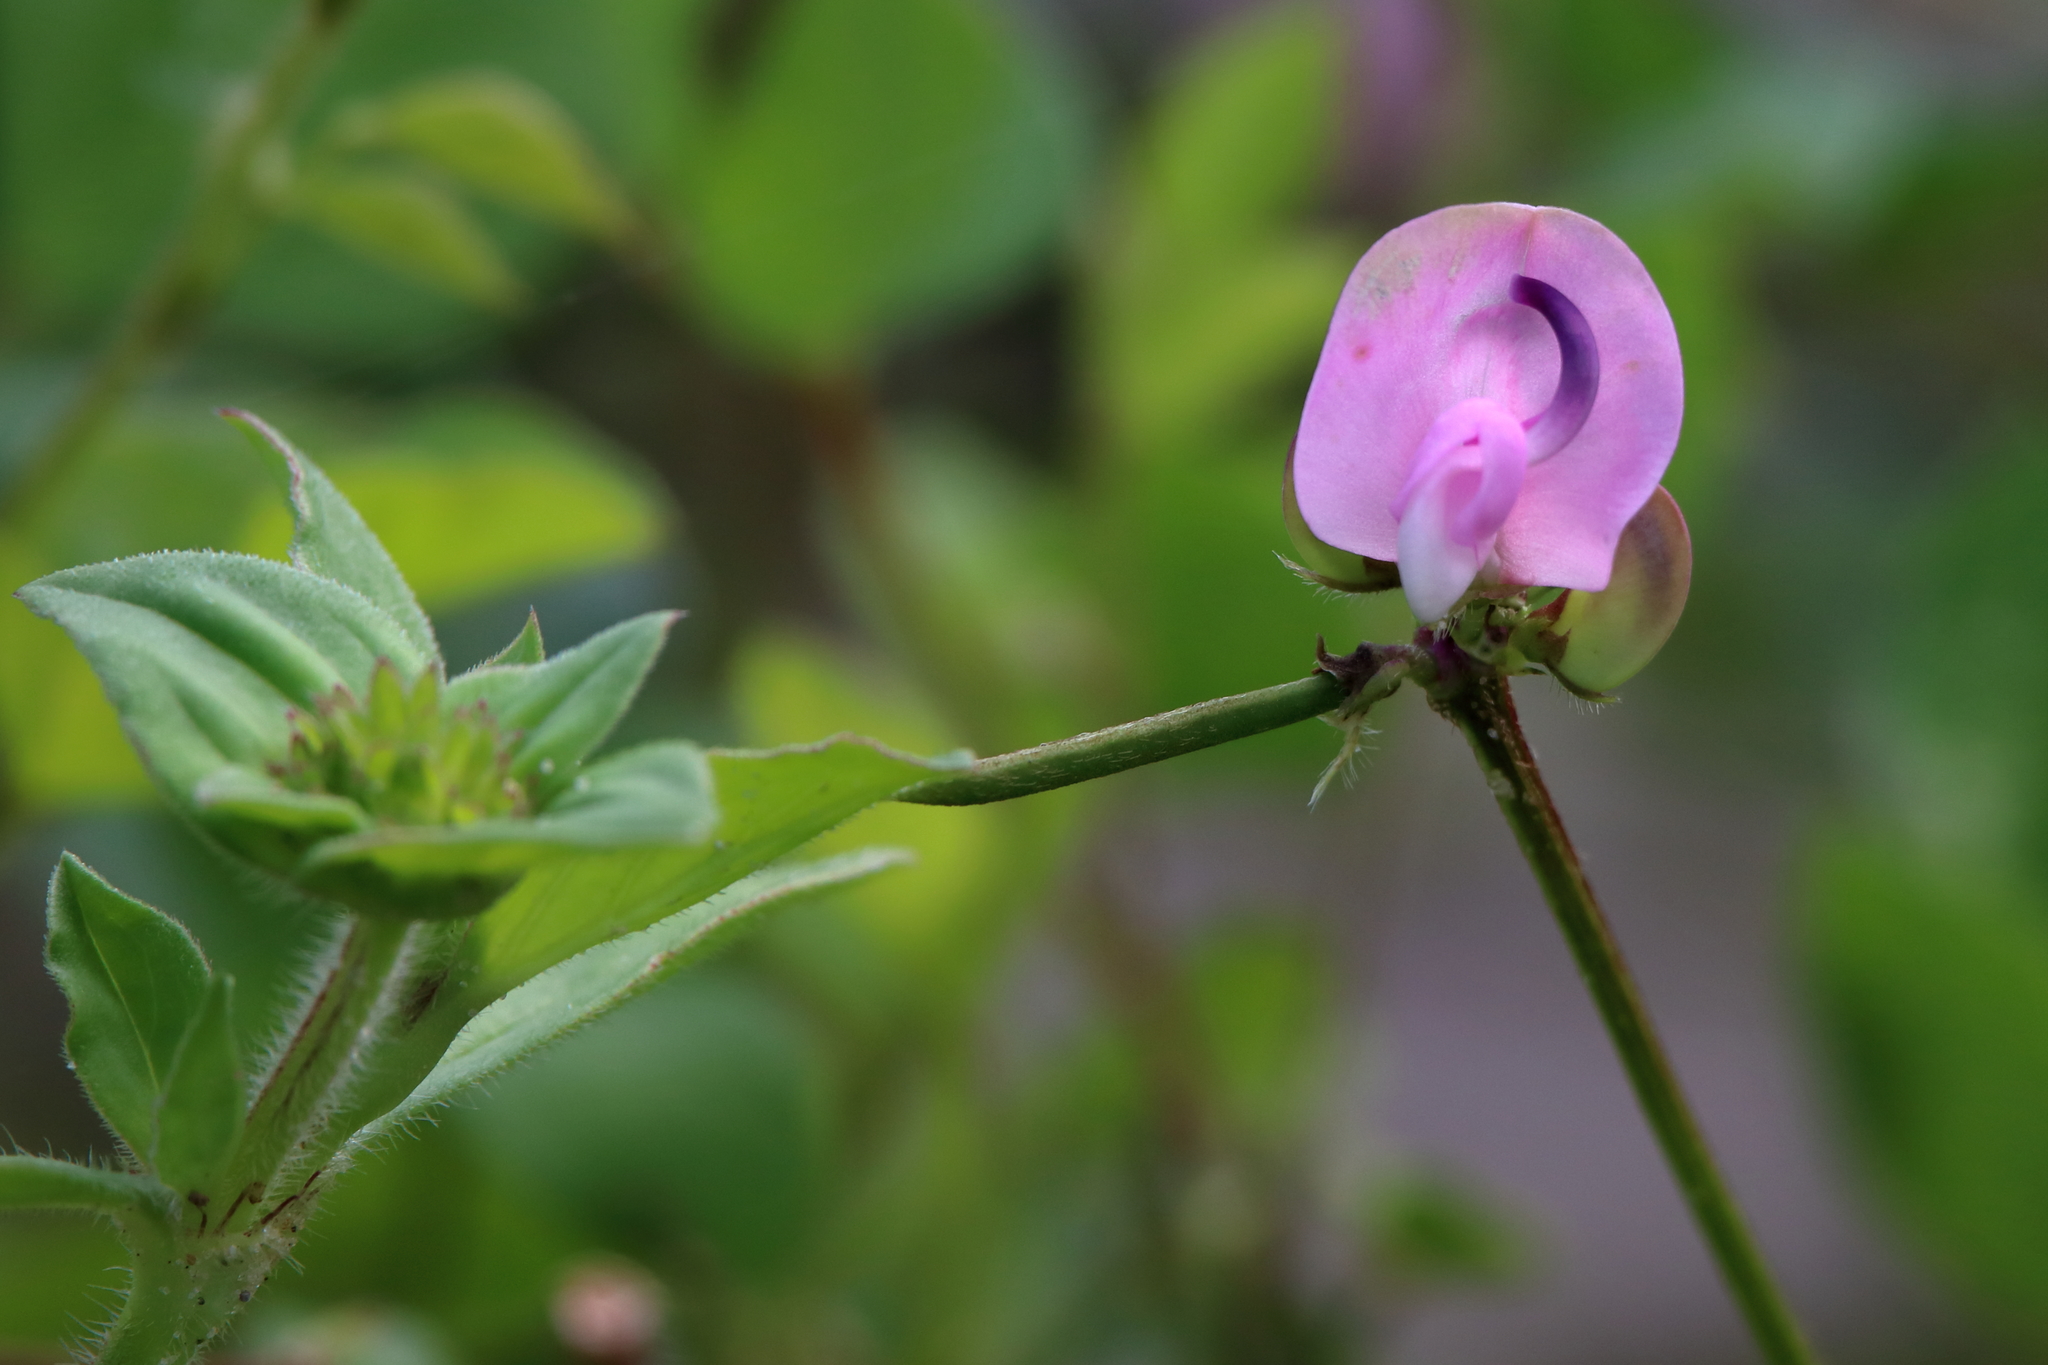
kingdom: Plantae
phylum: Tracheophyta
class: Magnoliopsida
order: Fabales
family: Fabaceae
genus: Strophostyles
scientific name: Strophostyles helvola
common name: Trailing wild bean
